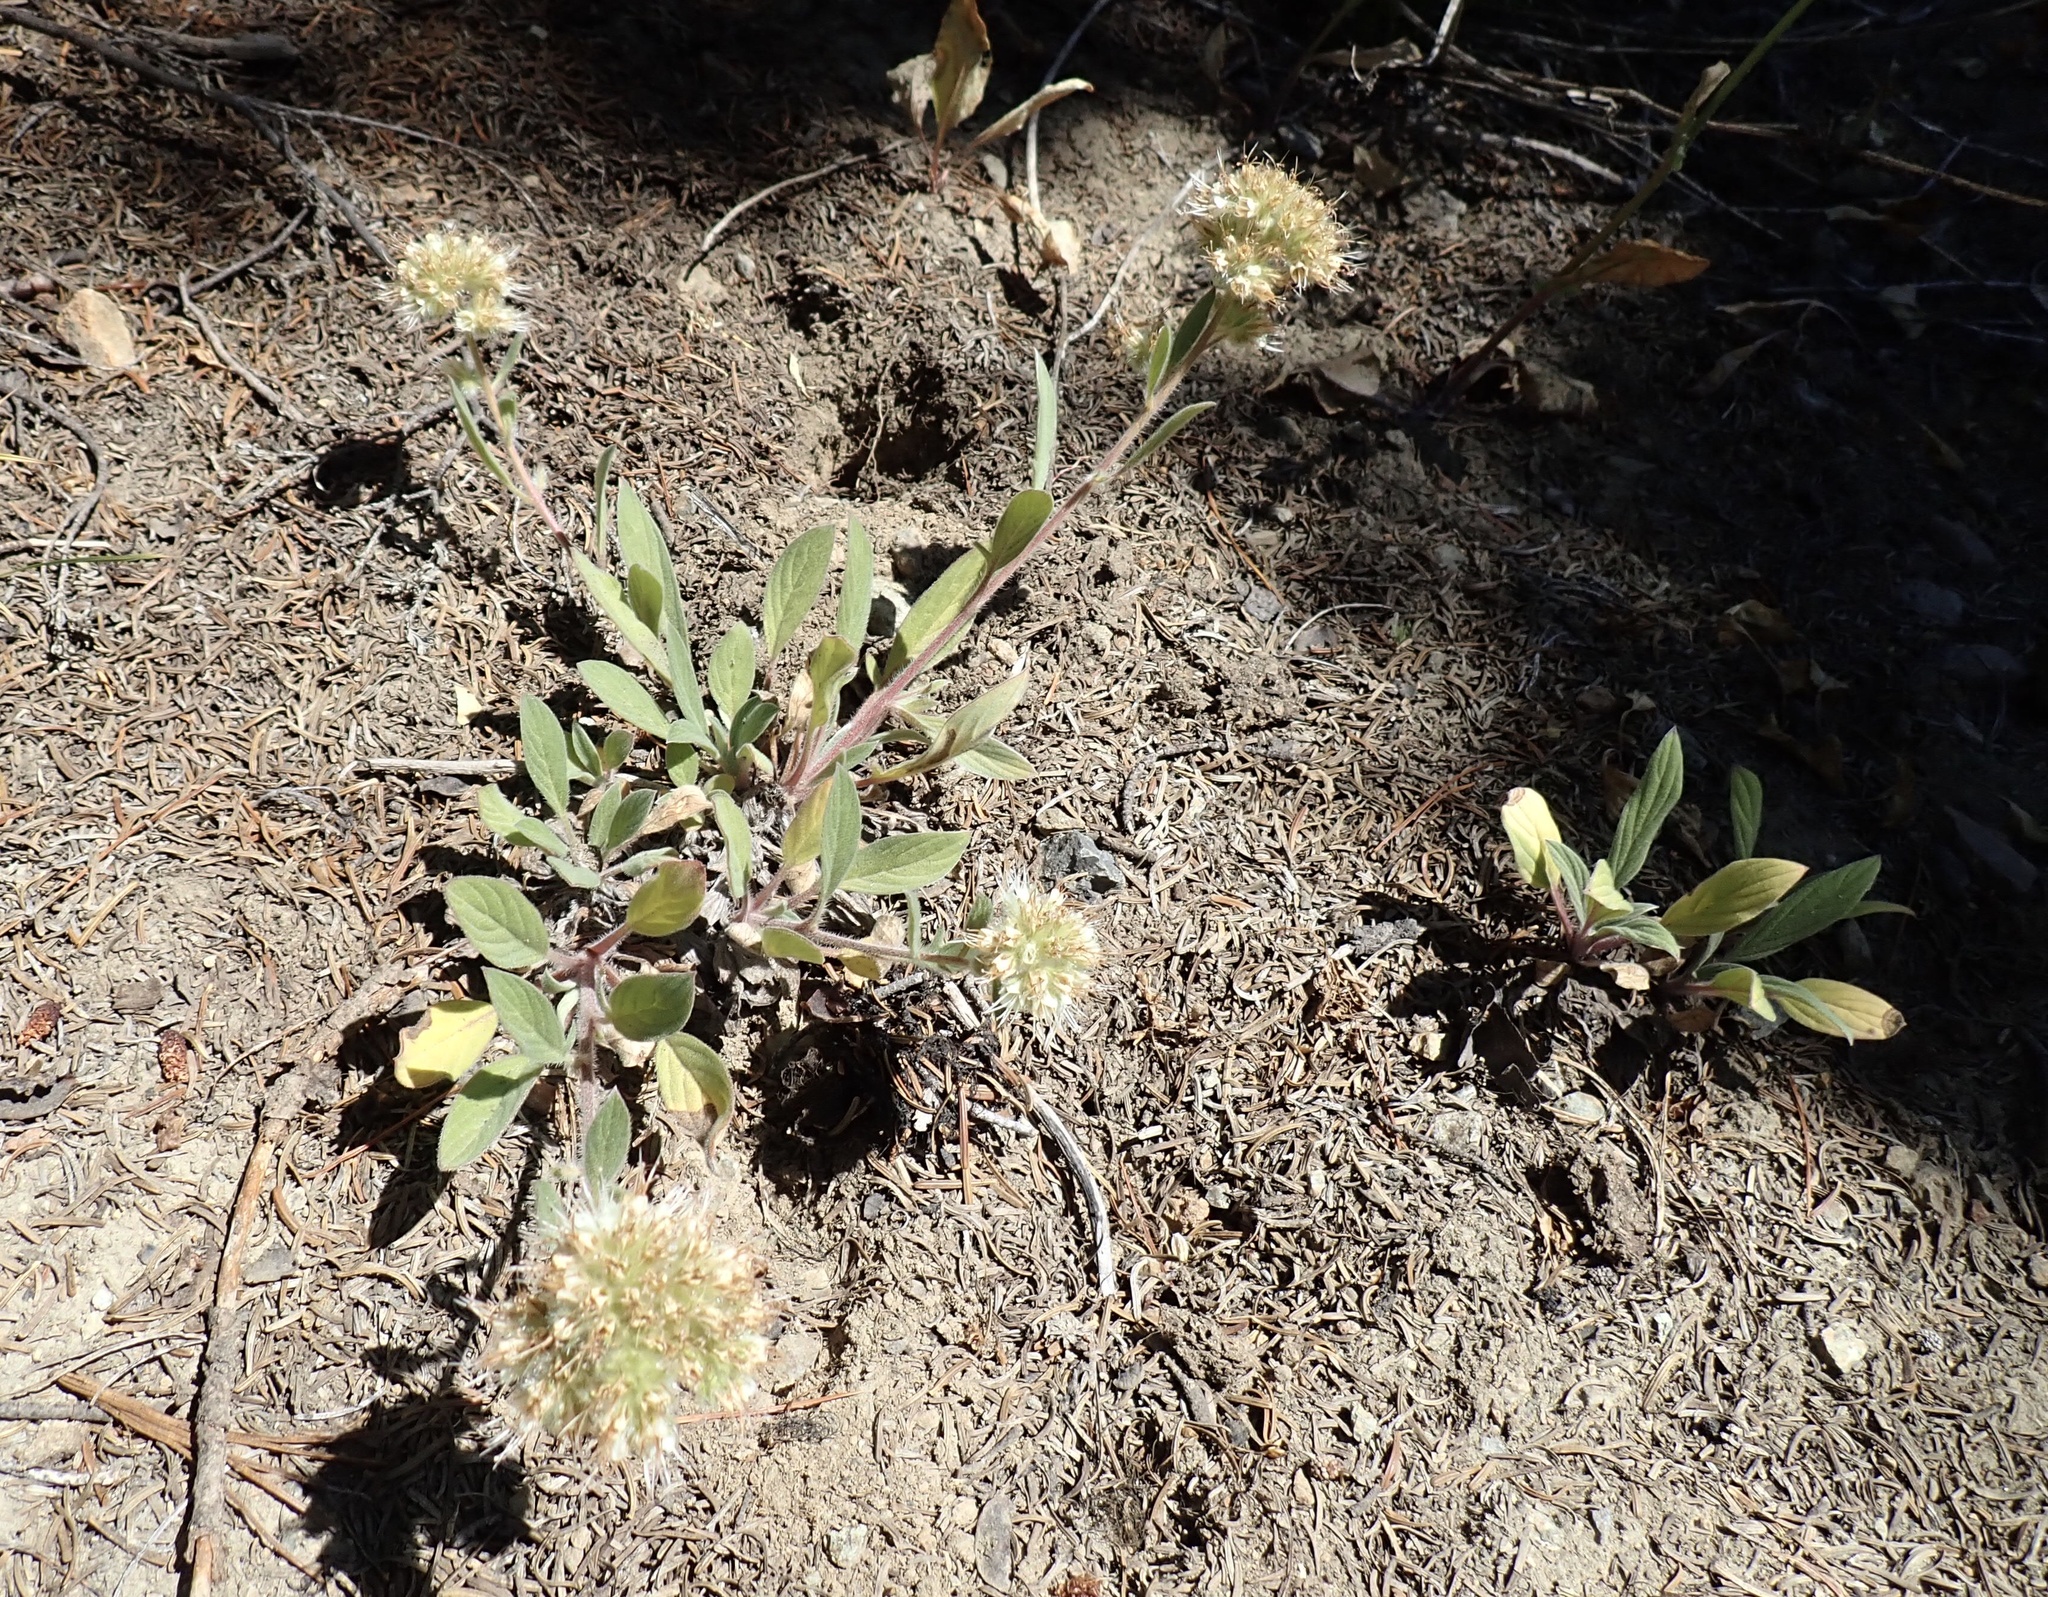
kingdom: Plantae
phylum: Tracheophyta
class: Magnoliopsida
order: Boraginales
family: Hydrophyllaceae
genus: Phacelia
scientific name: Phacelia hastata
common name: Silver-leaved phacelia
